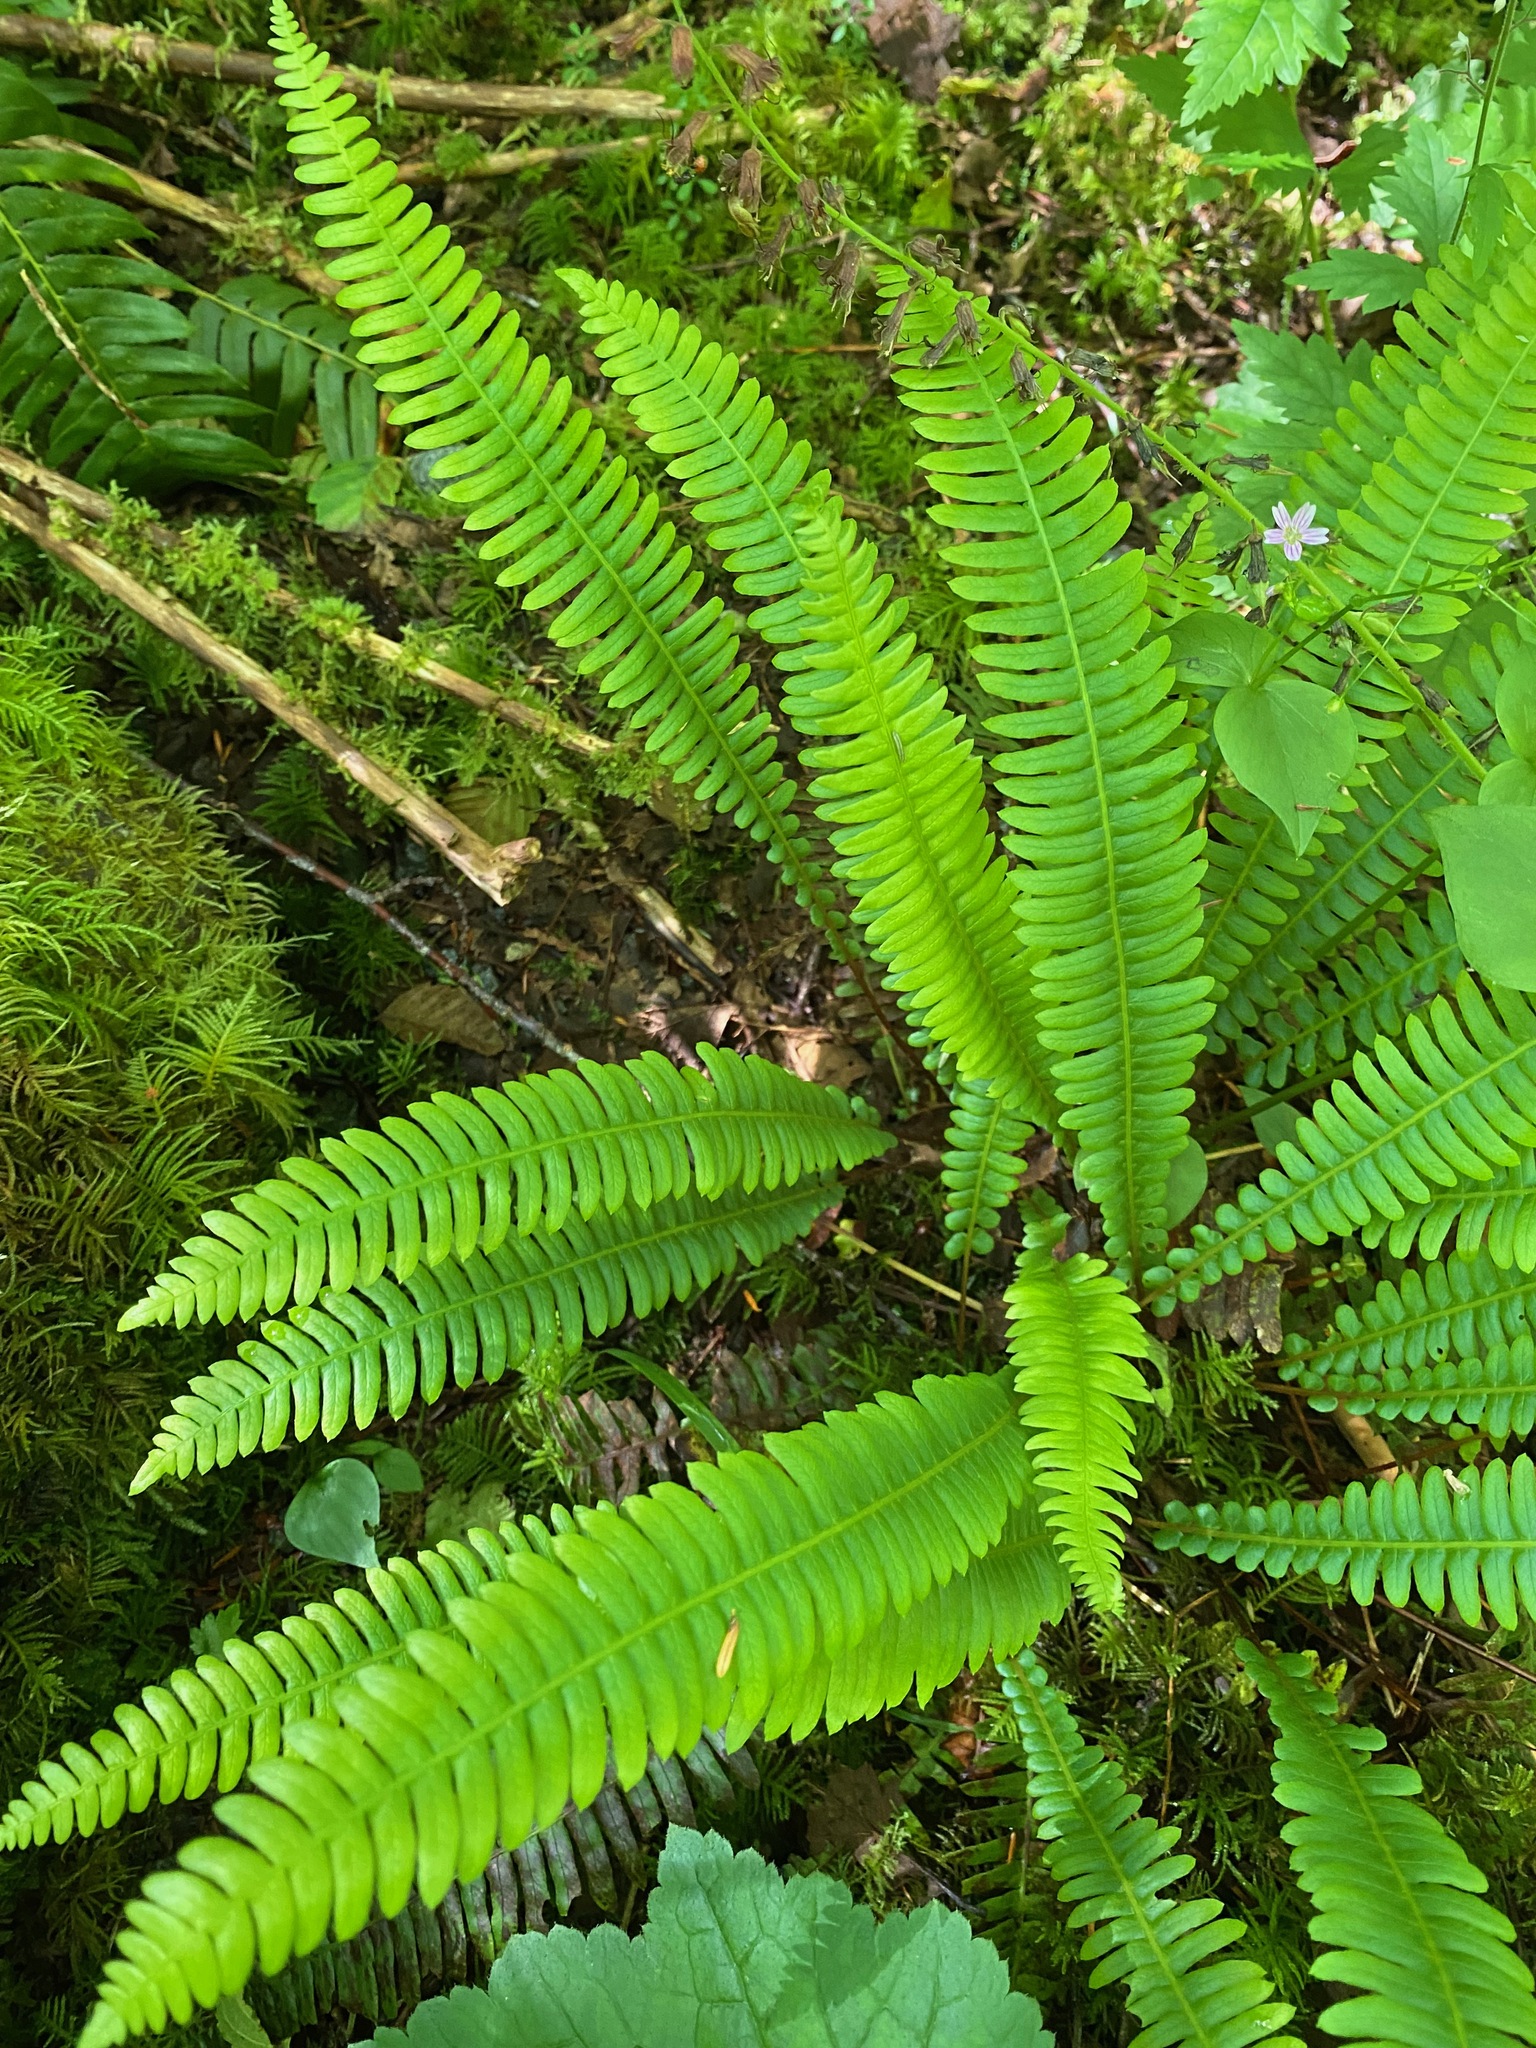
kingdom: Plantae
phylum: Tracheophyta
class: Polypodiopsida
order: Polypodiales
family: Blechnaceae
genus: Struthiopteris
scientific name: Struthiopteris spicant
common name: Deer fern
